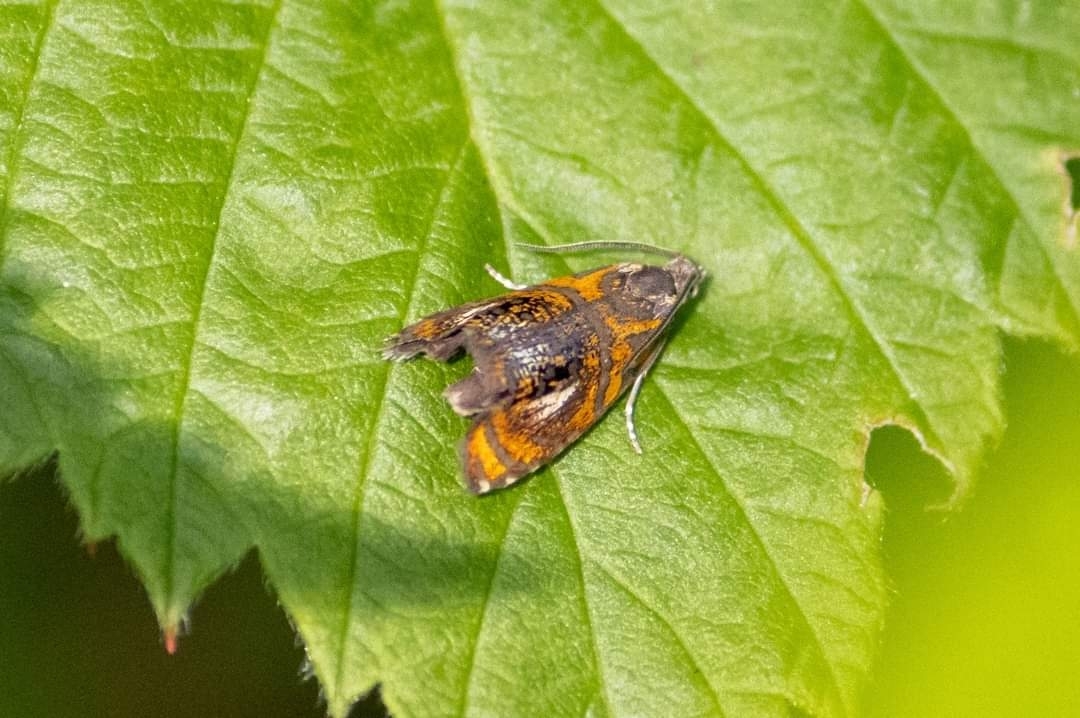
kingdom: Animalia
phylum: Arthropoda
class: Insecta
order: Lepidoptera
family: Tortricidae
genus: Olethreutes
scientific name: Olethreutes arcuella
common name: Arched marble
